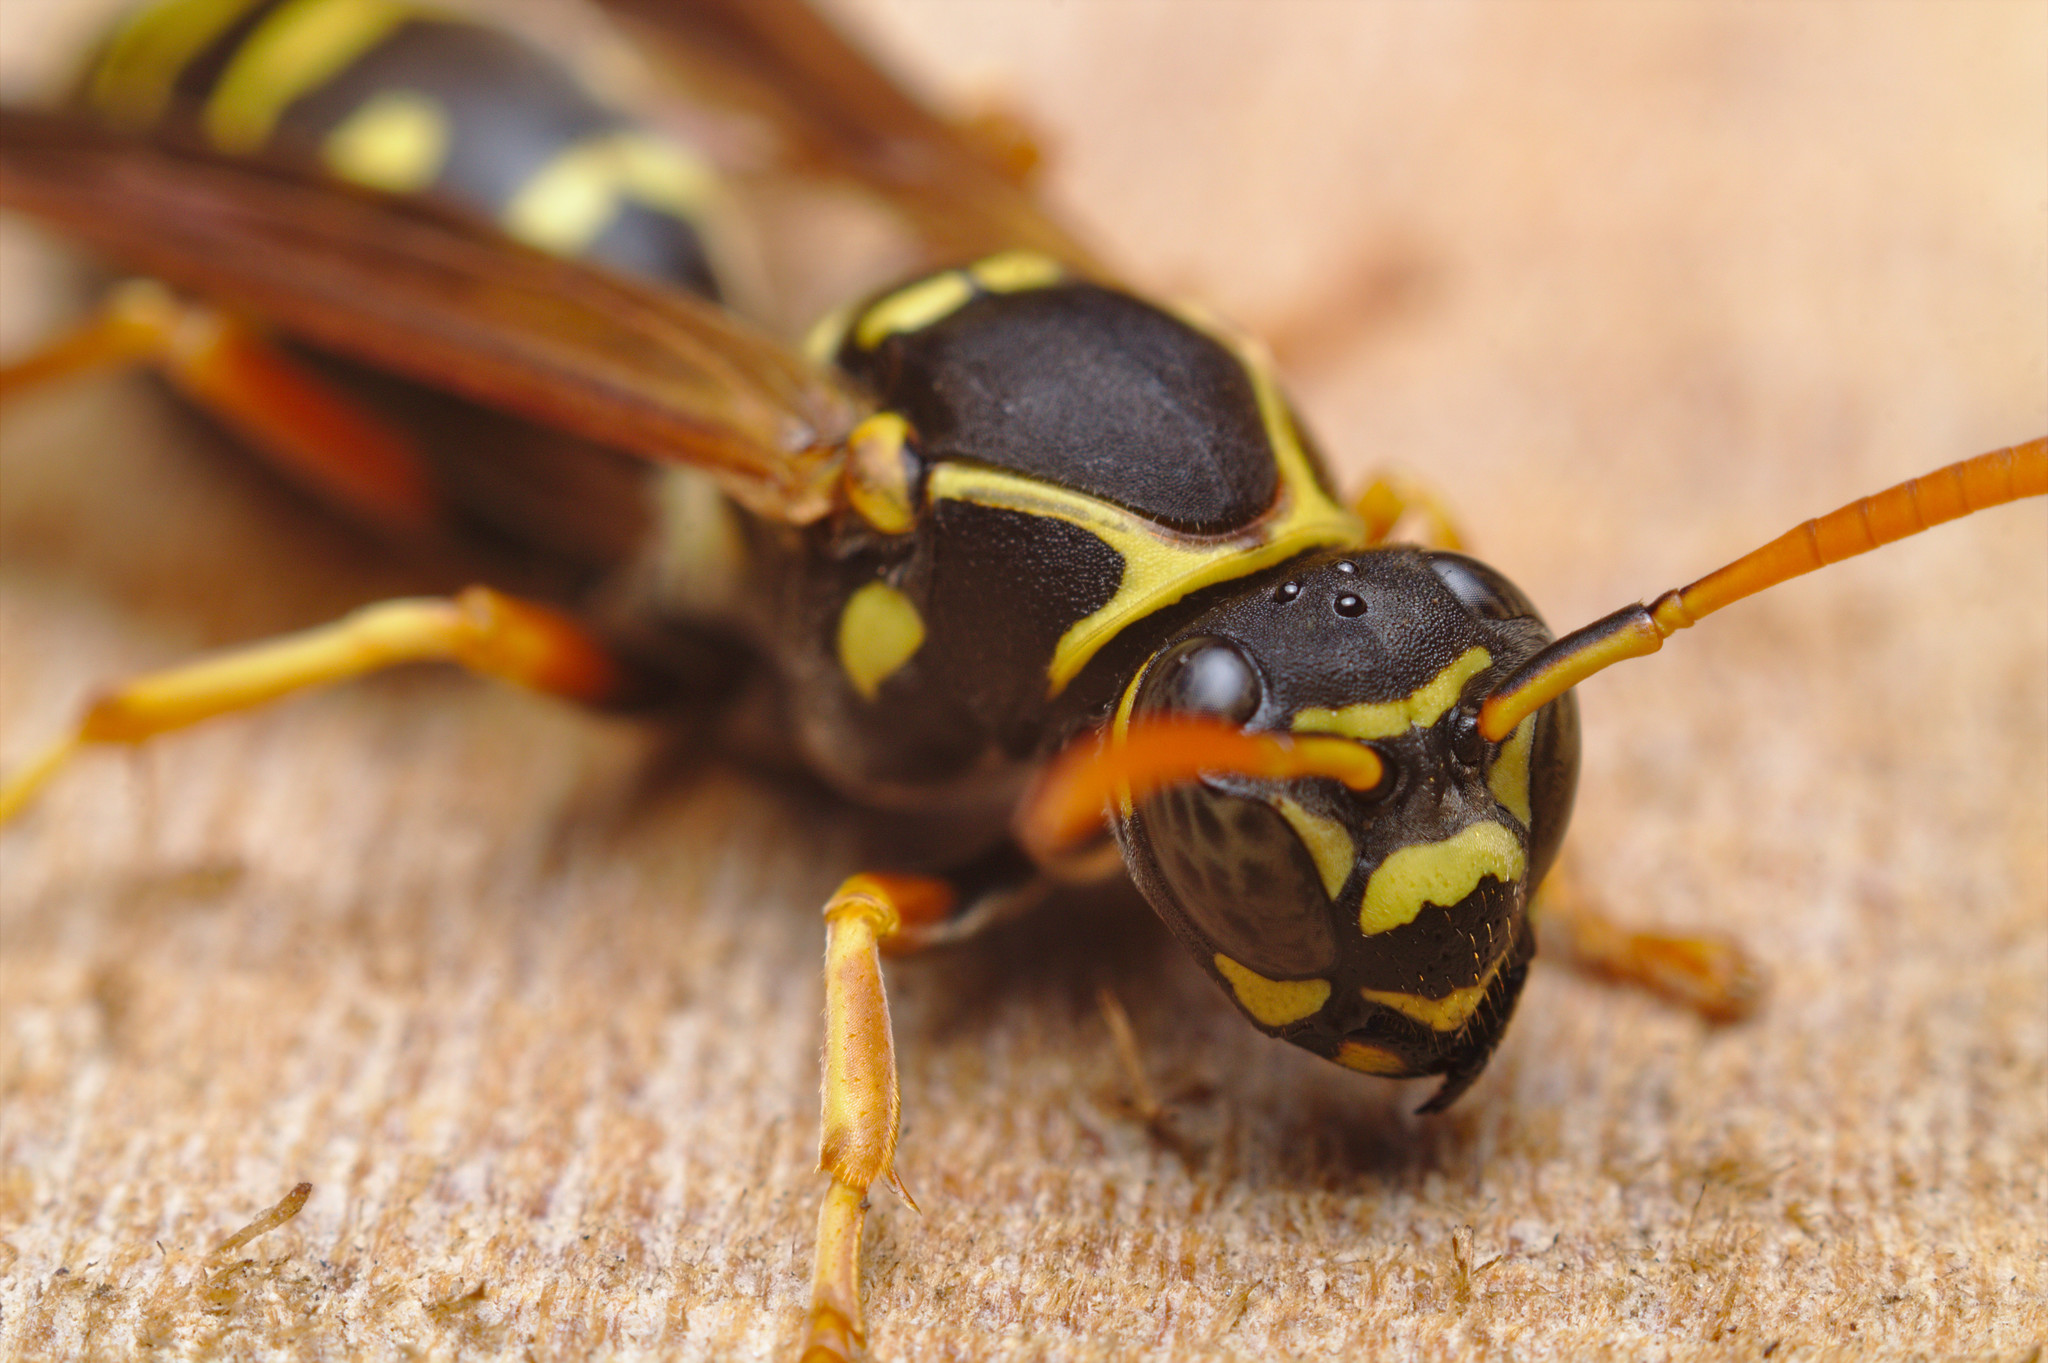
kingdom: Animalia
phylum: Arthropoda
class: Insecta
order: Hymenoptera
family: Eumenidae
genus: Polistes
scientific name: Polistes chinensis
